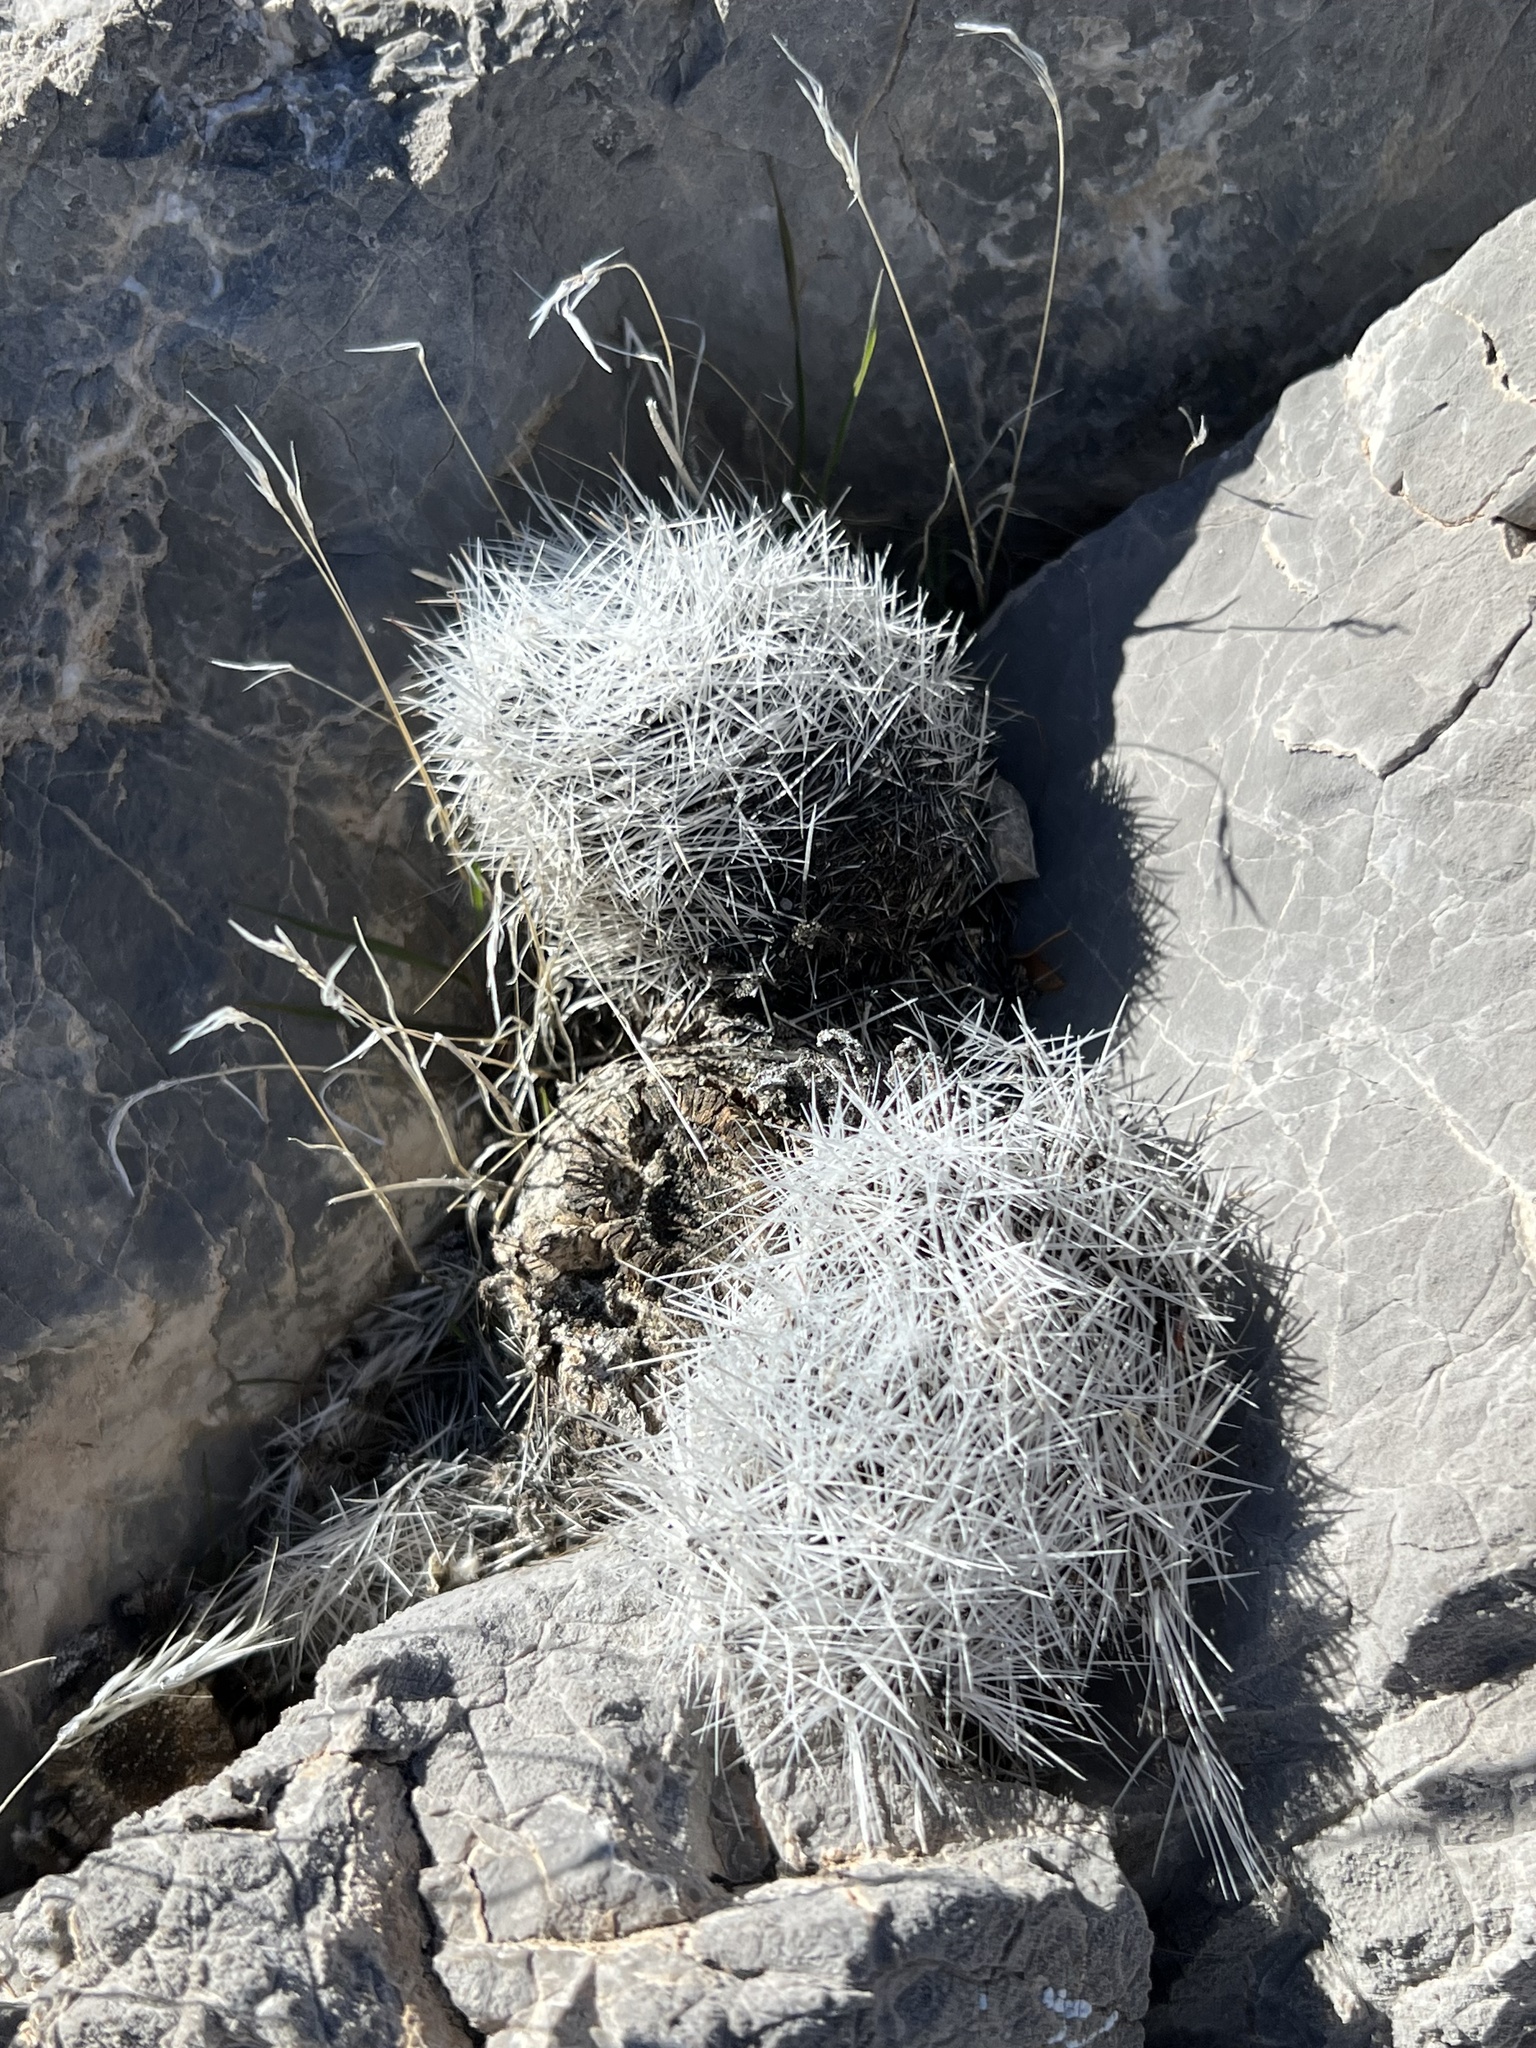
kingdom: Plantae
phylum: Tracheophyta
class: Magnoliopsida
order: Caryophyllales
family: Cactaceae
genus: Pelecyphora
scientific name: Pelecyphora dasyacantha
